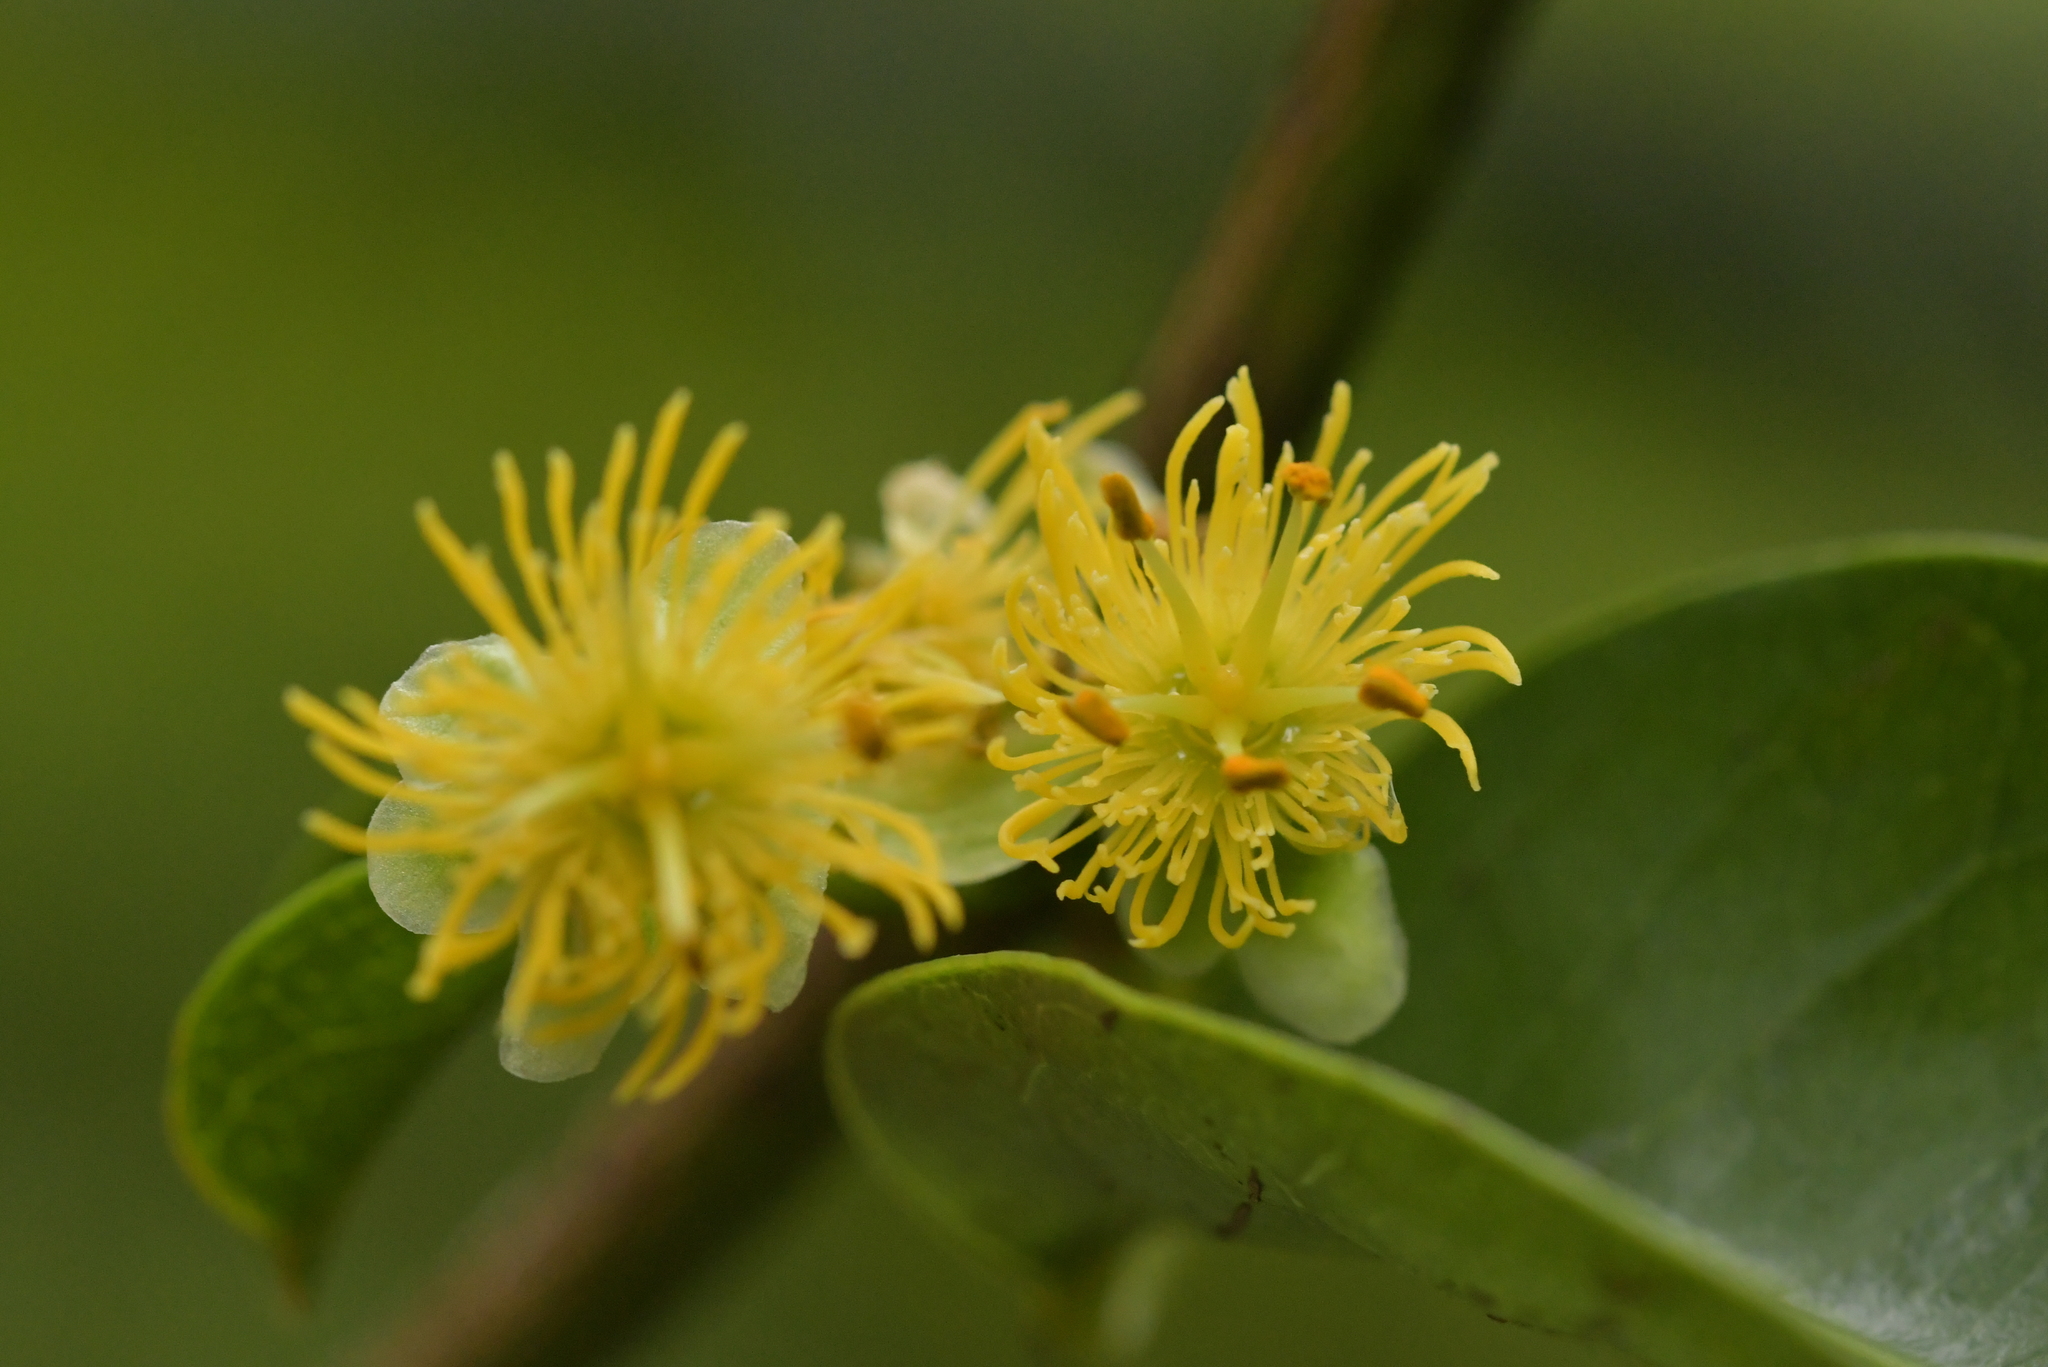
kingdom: Plantae
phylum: Tracheophyta
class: Magnoliopsida
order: Malpighiales
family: Passifloraceae
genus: Passiflora
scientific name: Passiflora tetrandra
